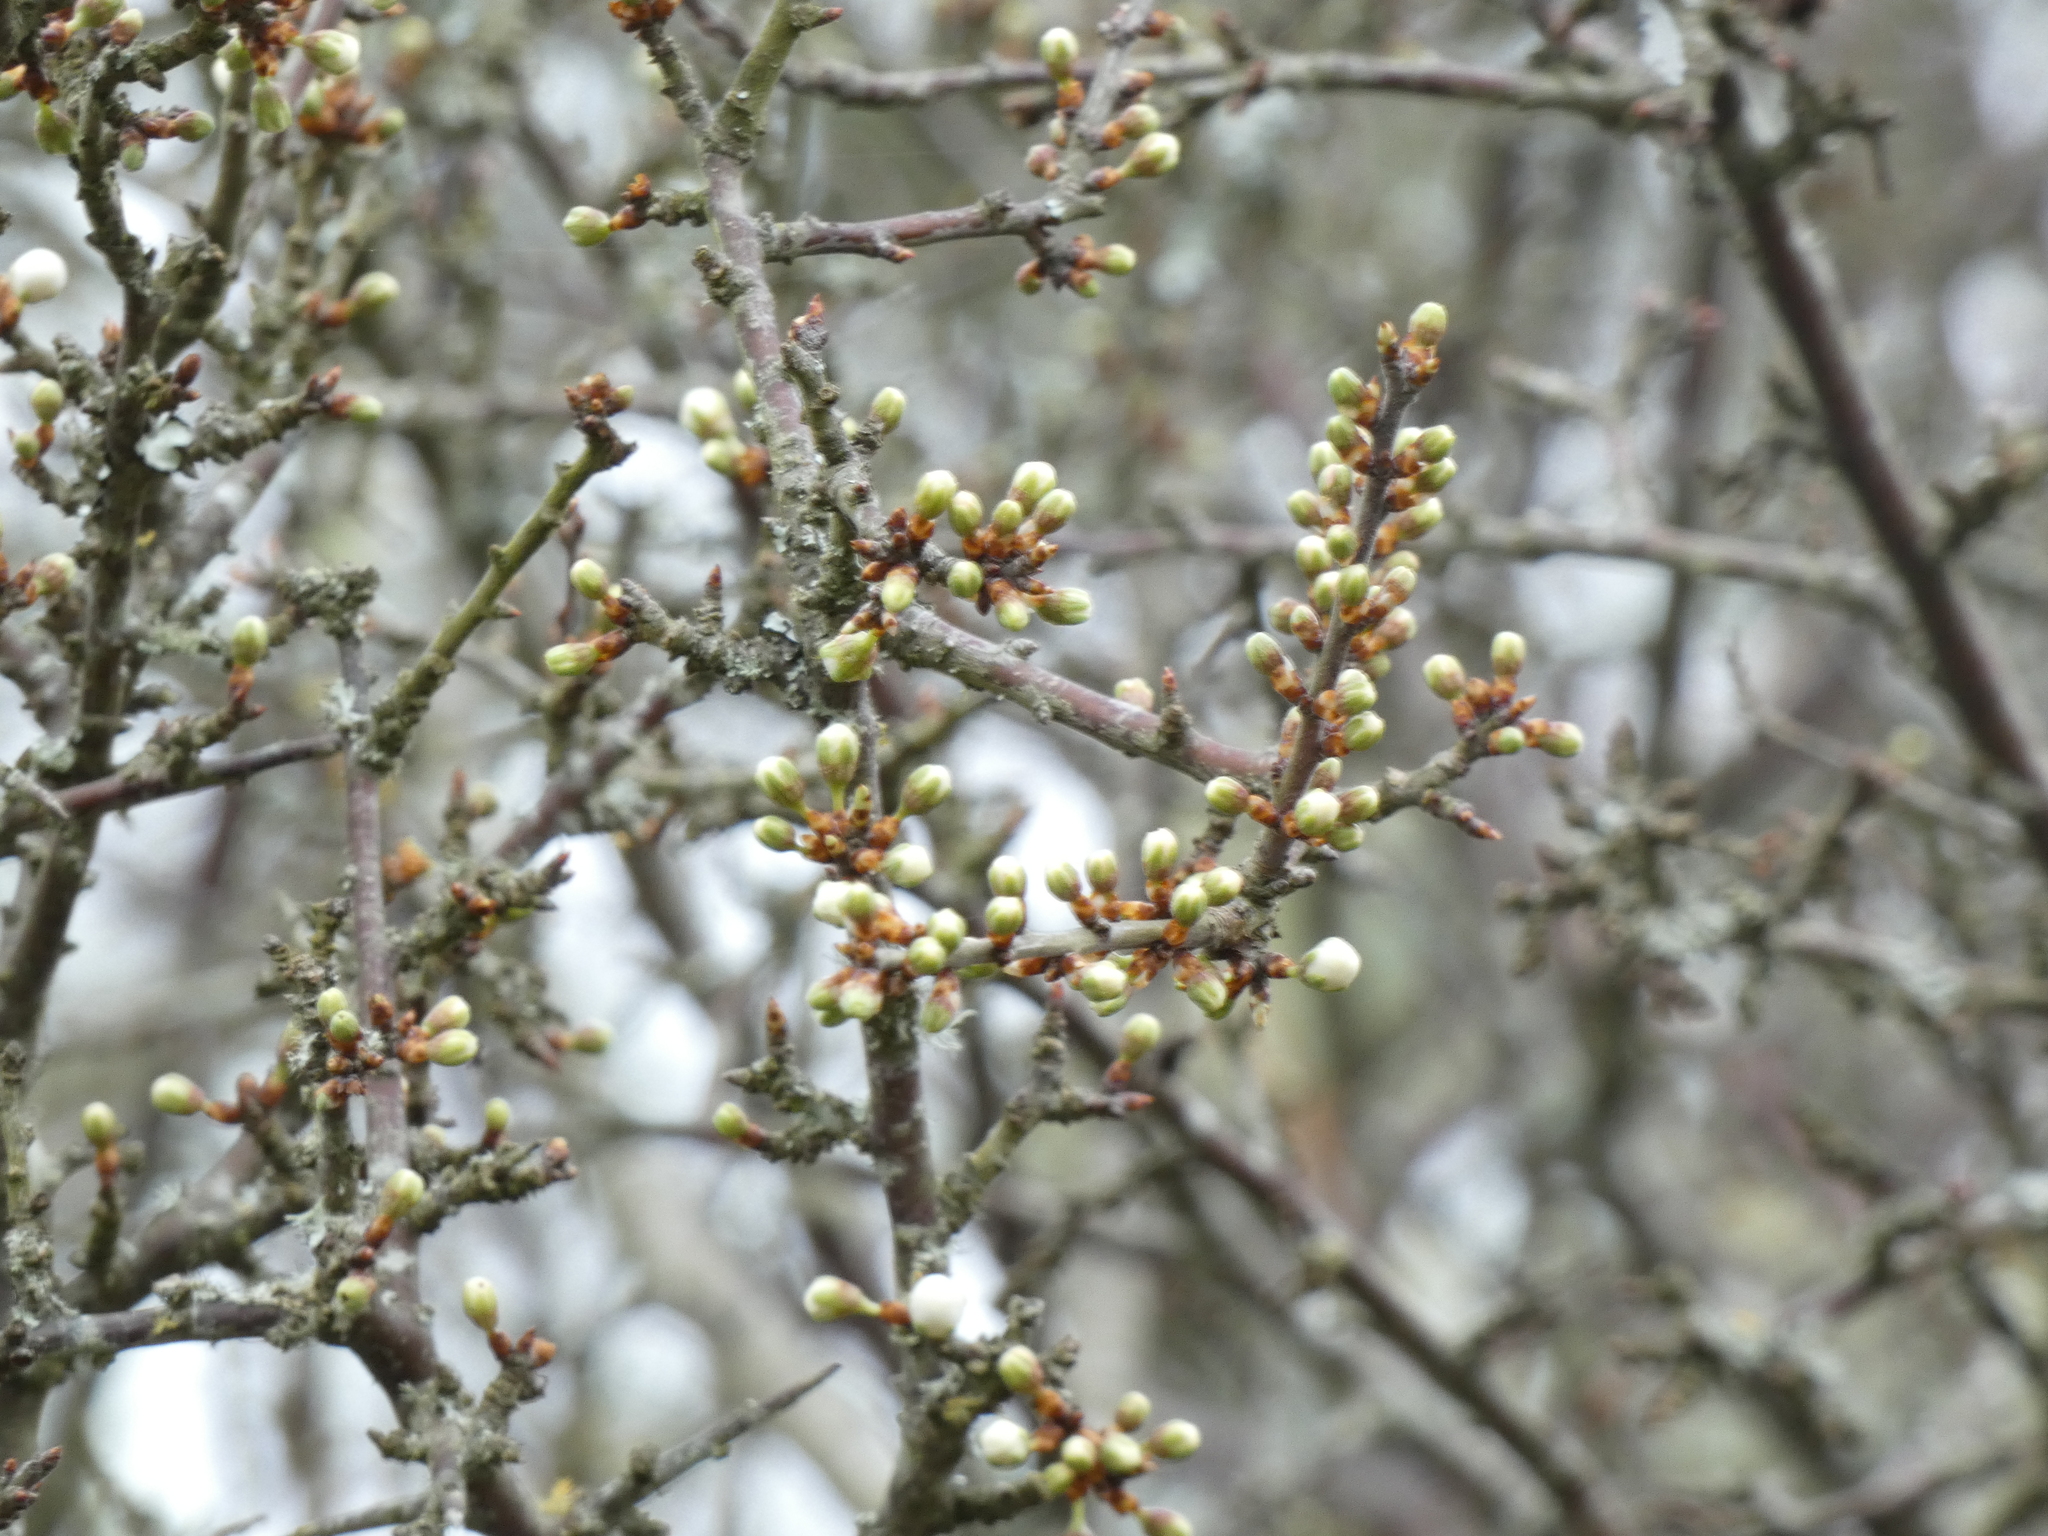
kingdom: Plantae
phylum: Tracheophyta
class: Magnoliopsida
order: Rosales
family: Rosaceae
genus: Prunus
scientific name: Prunus spinosa
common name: Blackthorn
